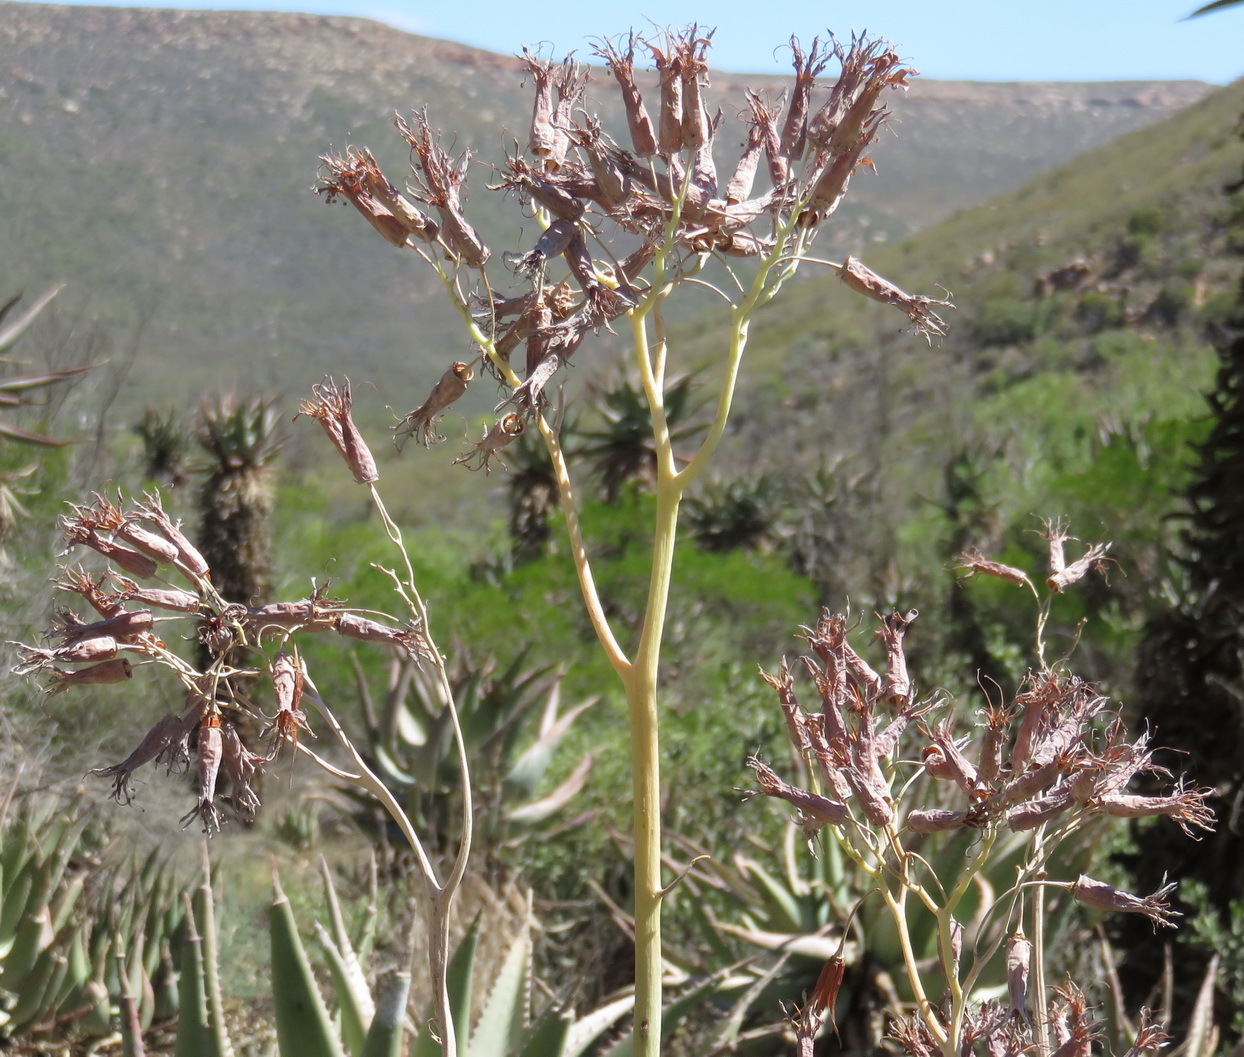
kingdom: Plantae
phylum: Tracheophyta
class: Magnoliopsida
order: Saxifragales
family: Crassulaceae
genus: Cotyledon
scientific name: Cotyledon orbiculata
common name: Pig's ear
